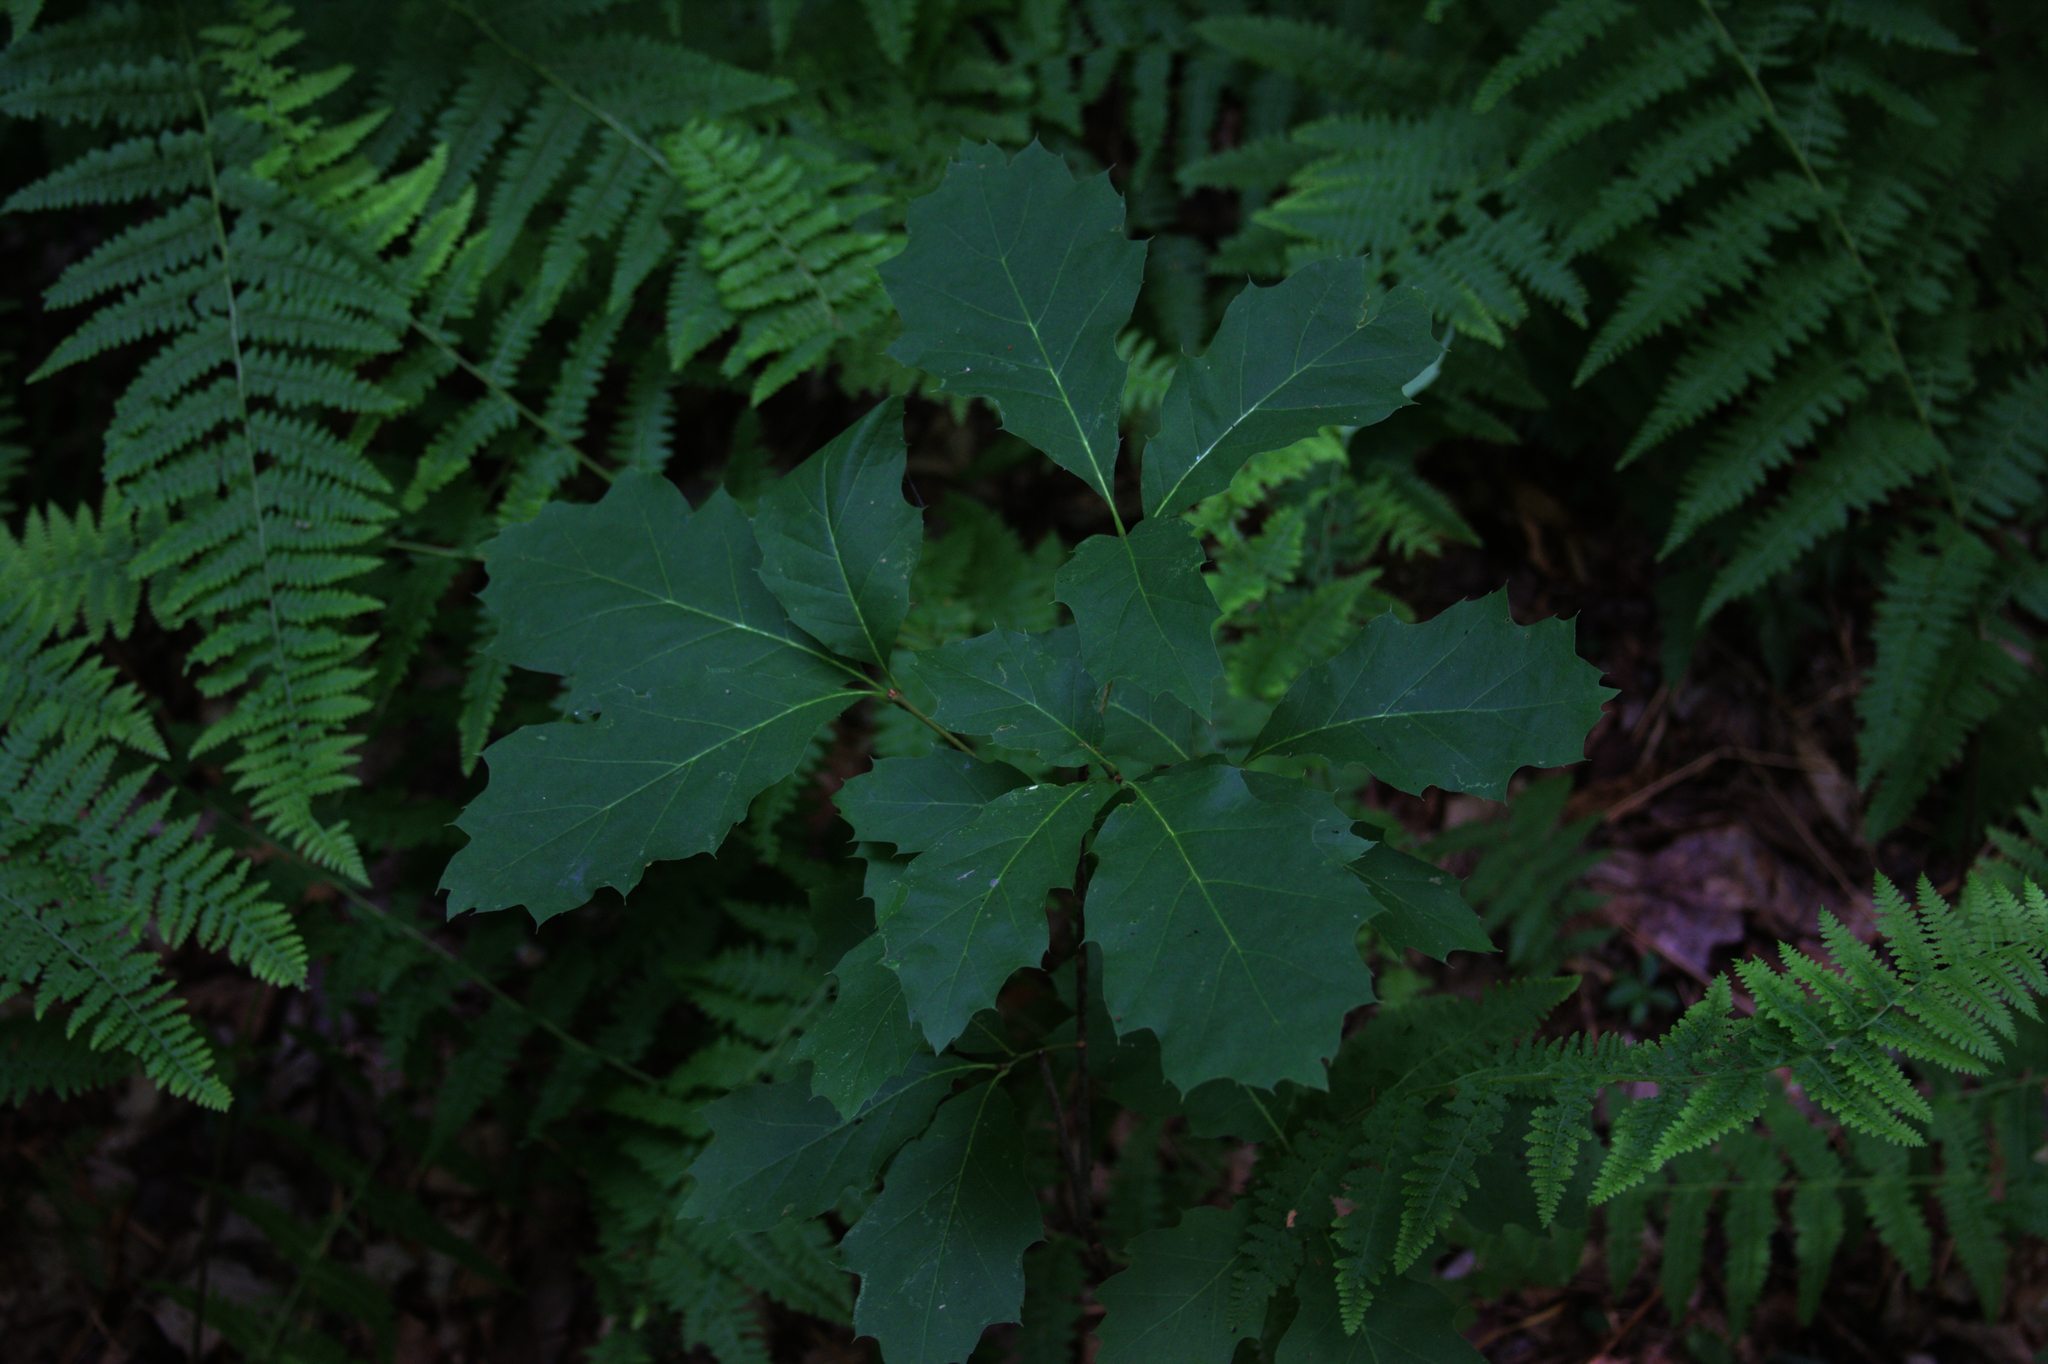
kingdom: Plantae
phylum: Tracheophyta
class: Magnoliopsida
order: Fagales
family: Fagaceae
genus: Quercus
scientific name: Quercus rubra
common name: Red oak
